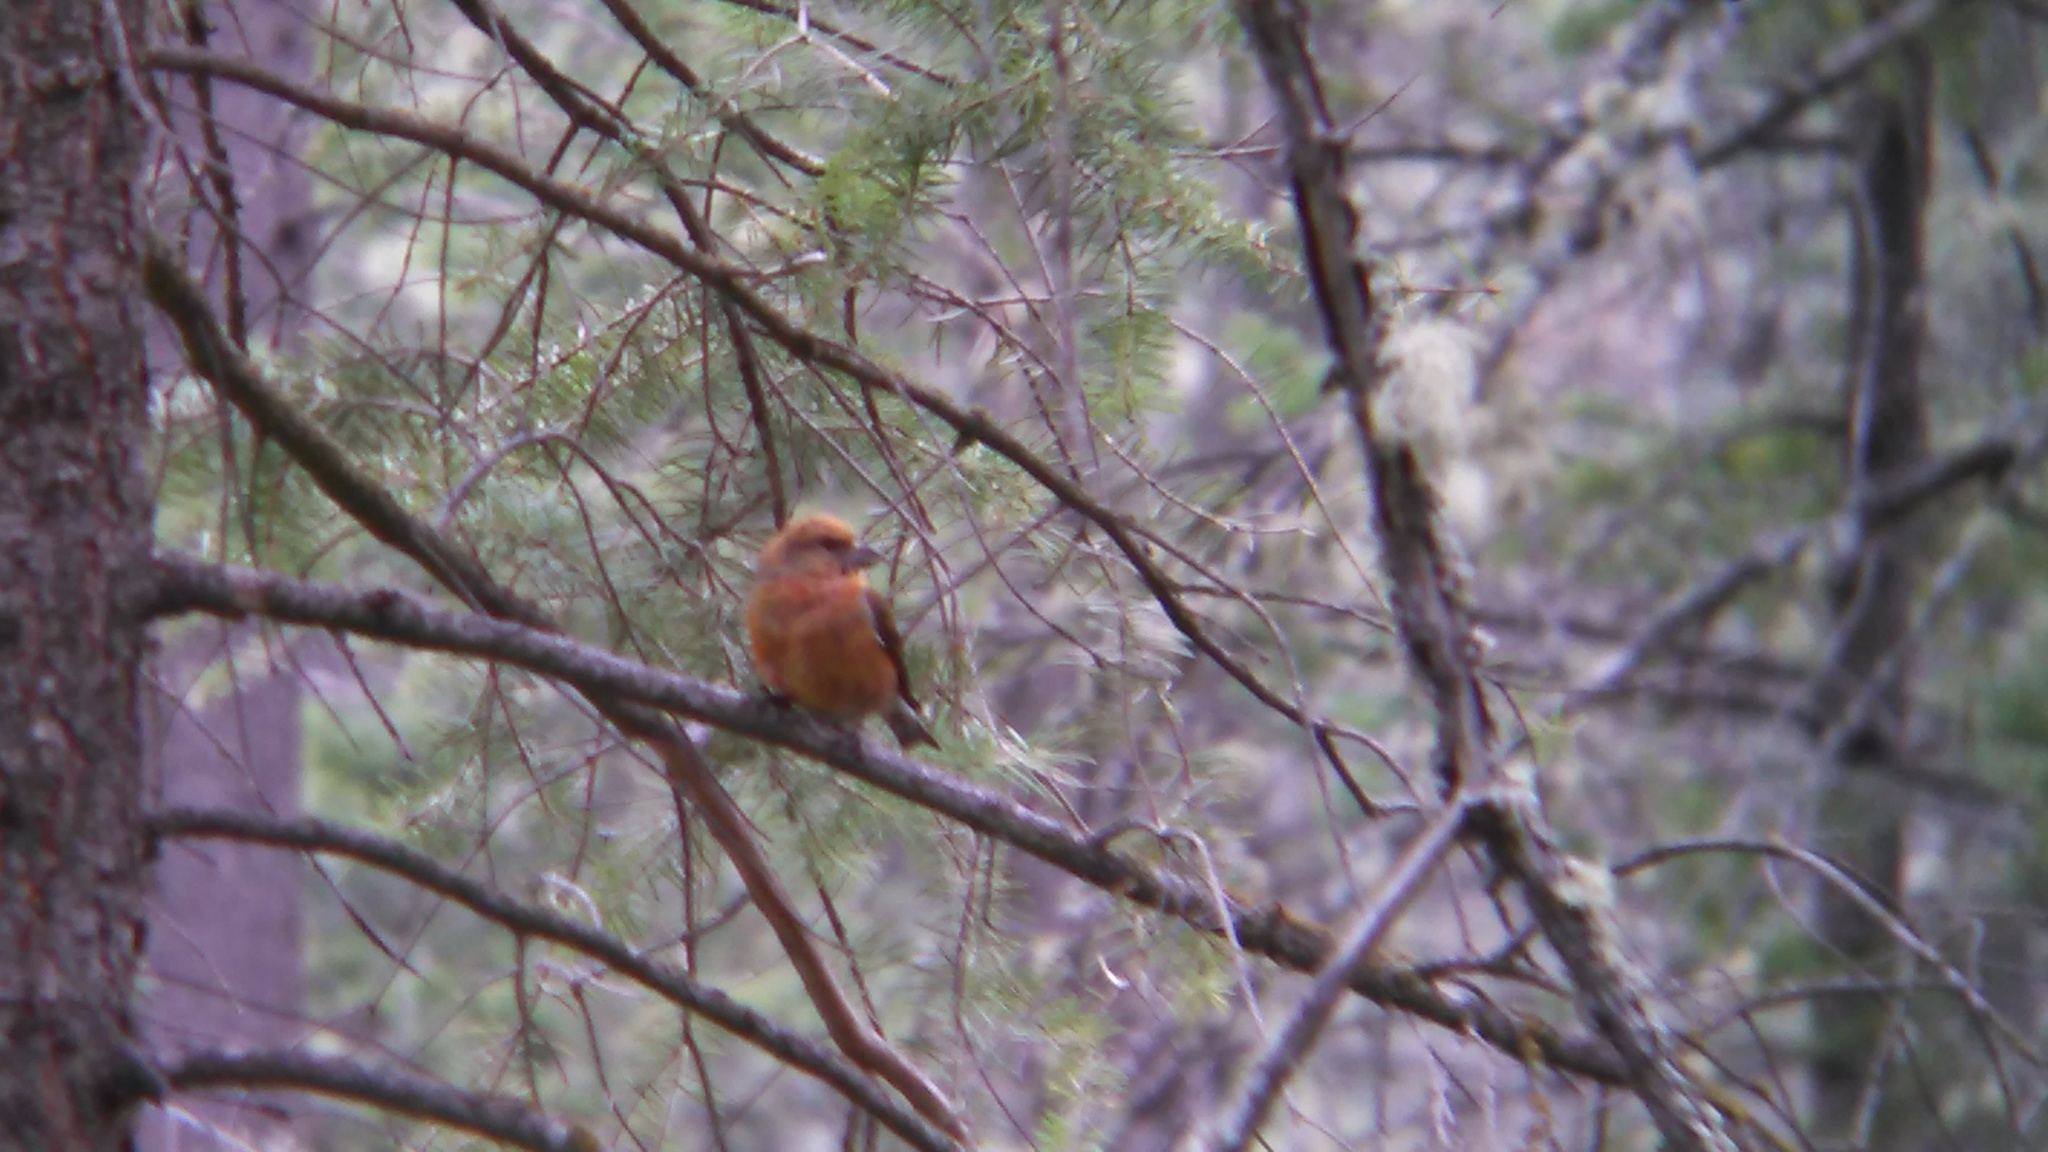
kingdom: Animalia
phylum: Chordata
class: Aves
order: Passeriformes
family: Fringillidae
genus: Loxia
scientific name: Loxia curvirostra
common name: Red crossbill
